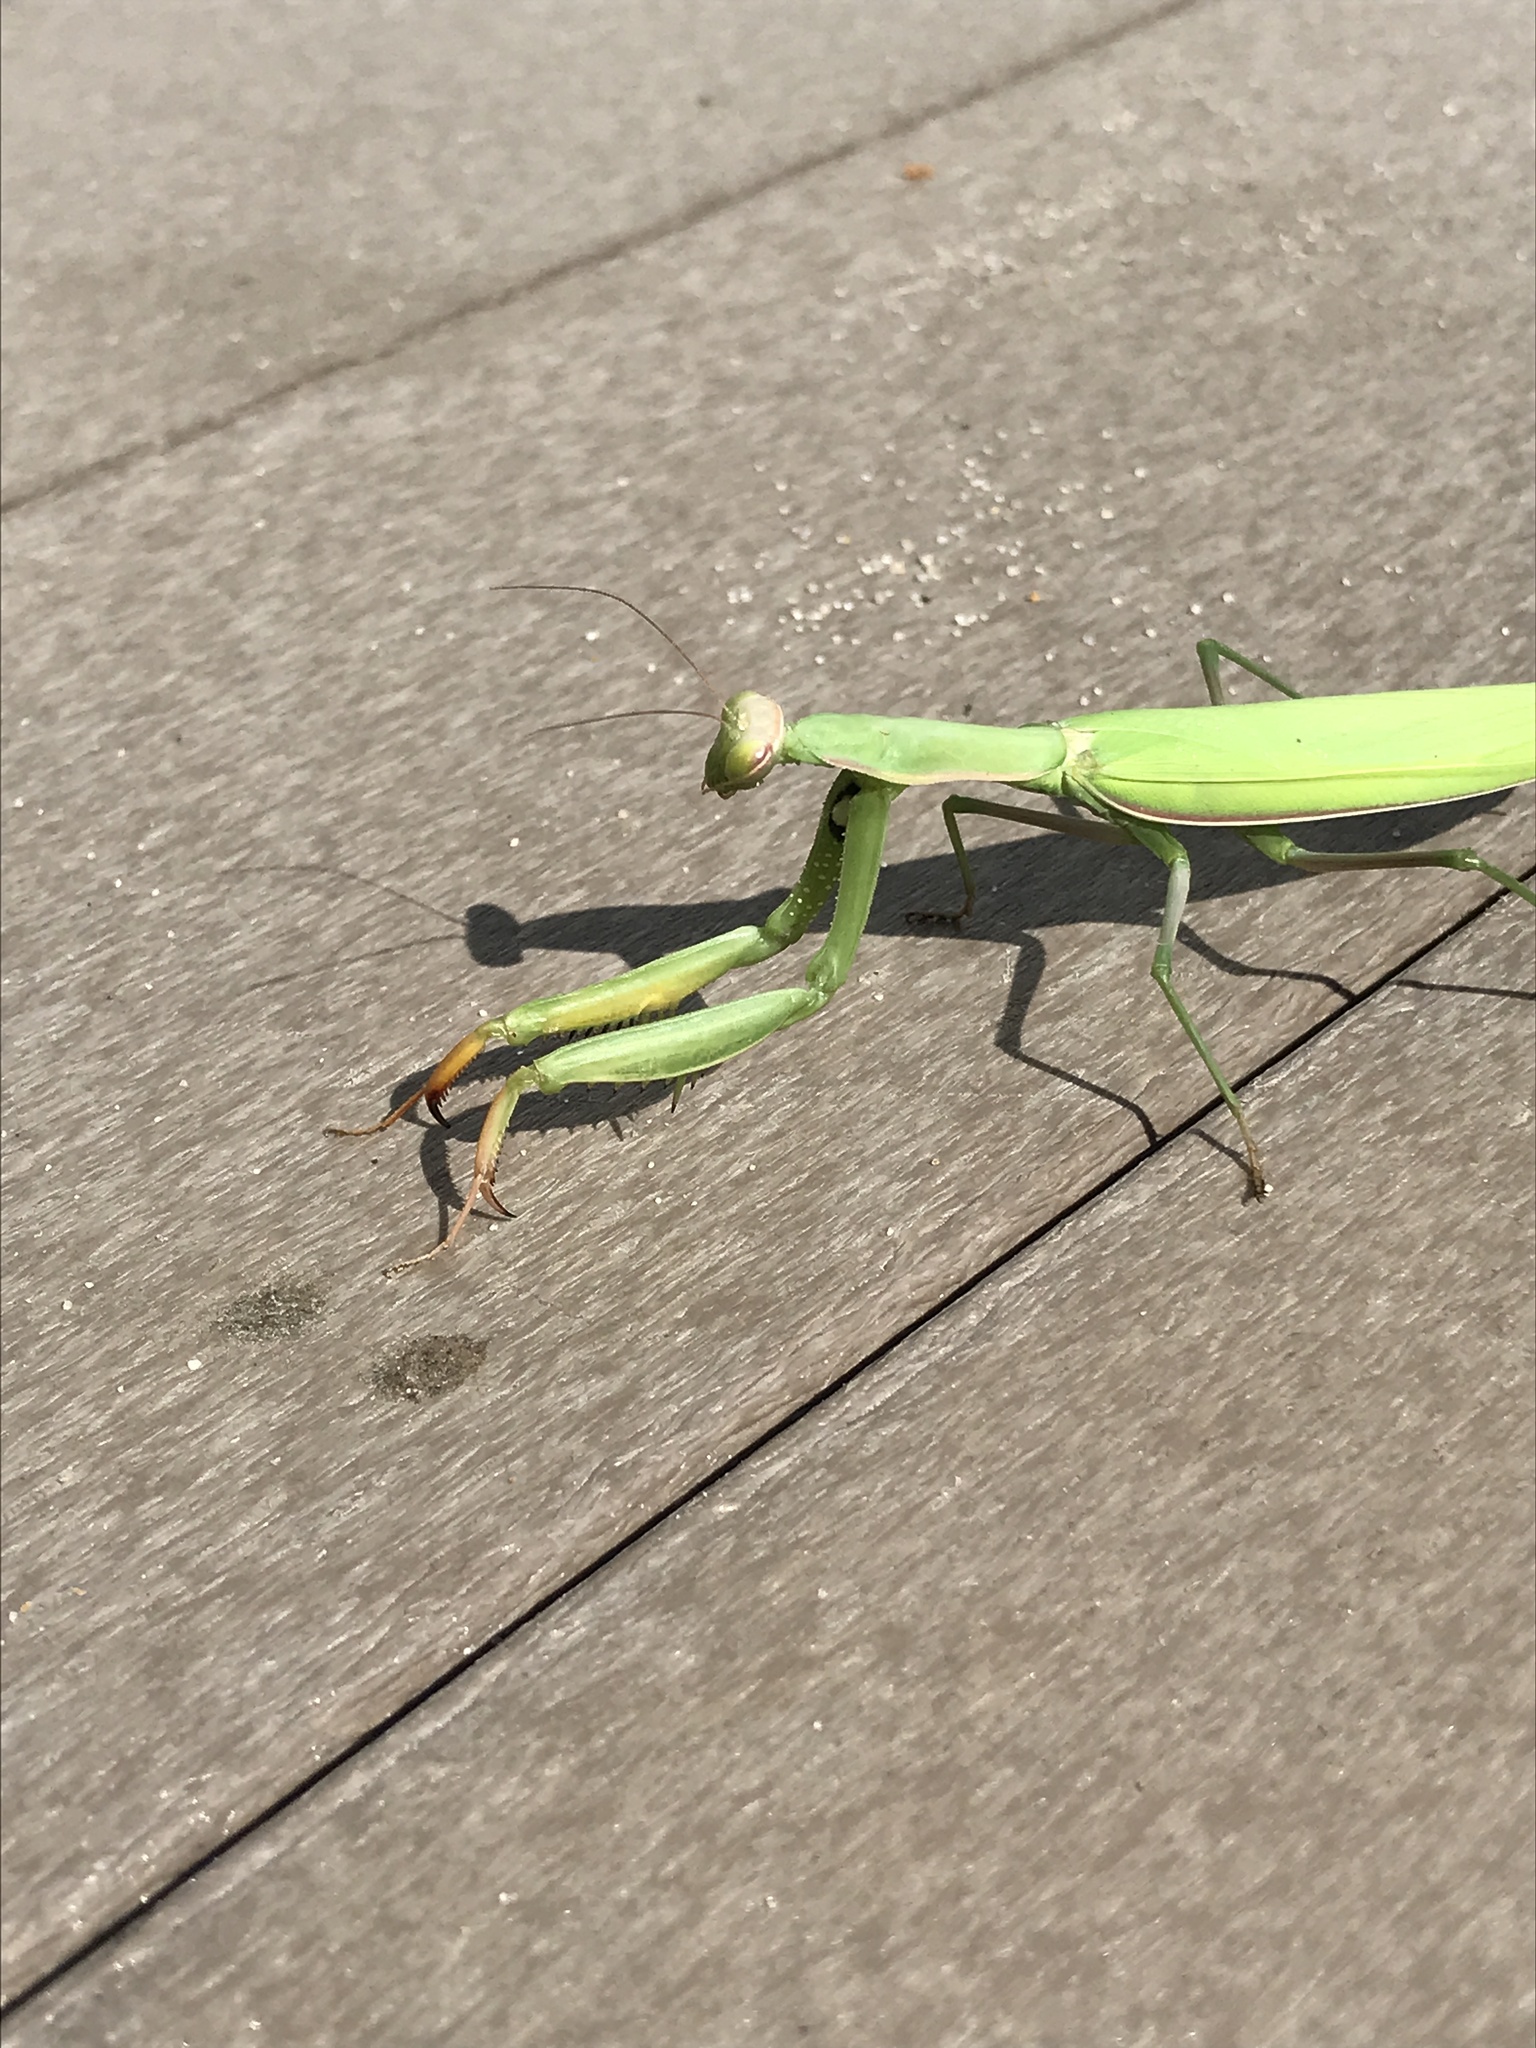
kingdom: Animalia
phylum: Arthropoda
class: Insecta
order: Mantodea
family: Mantidae
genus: Mantis
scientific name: Mantis religiosa
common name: Praying mantis
